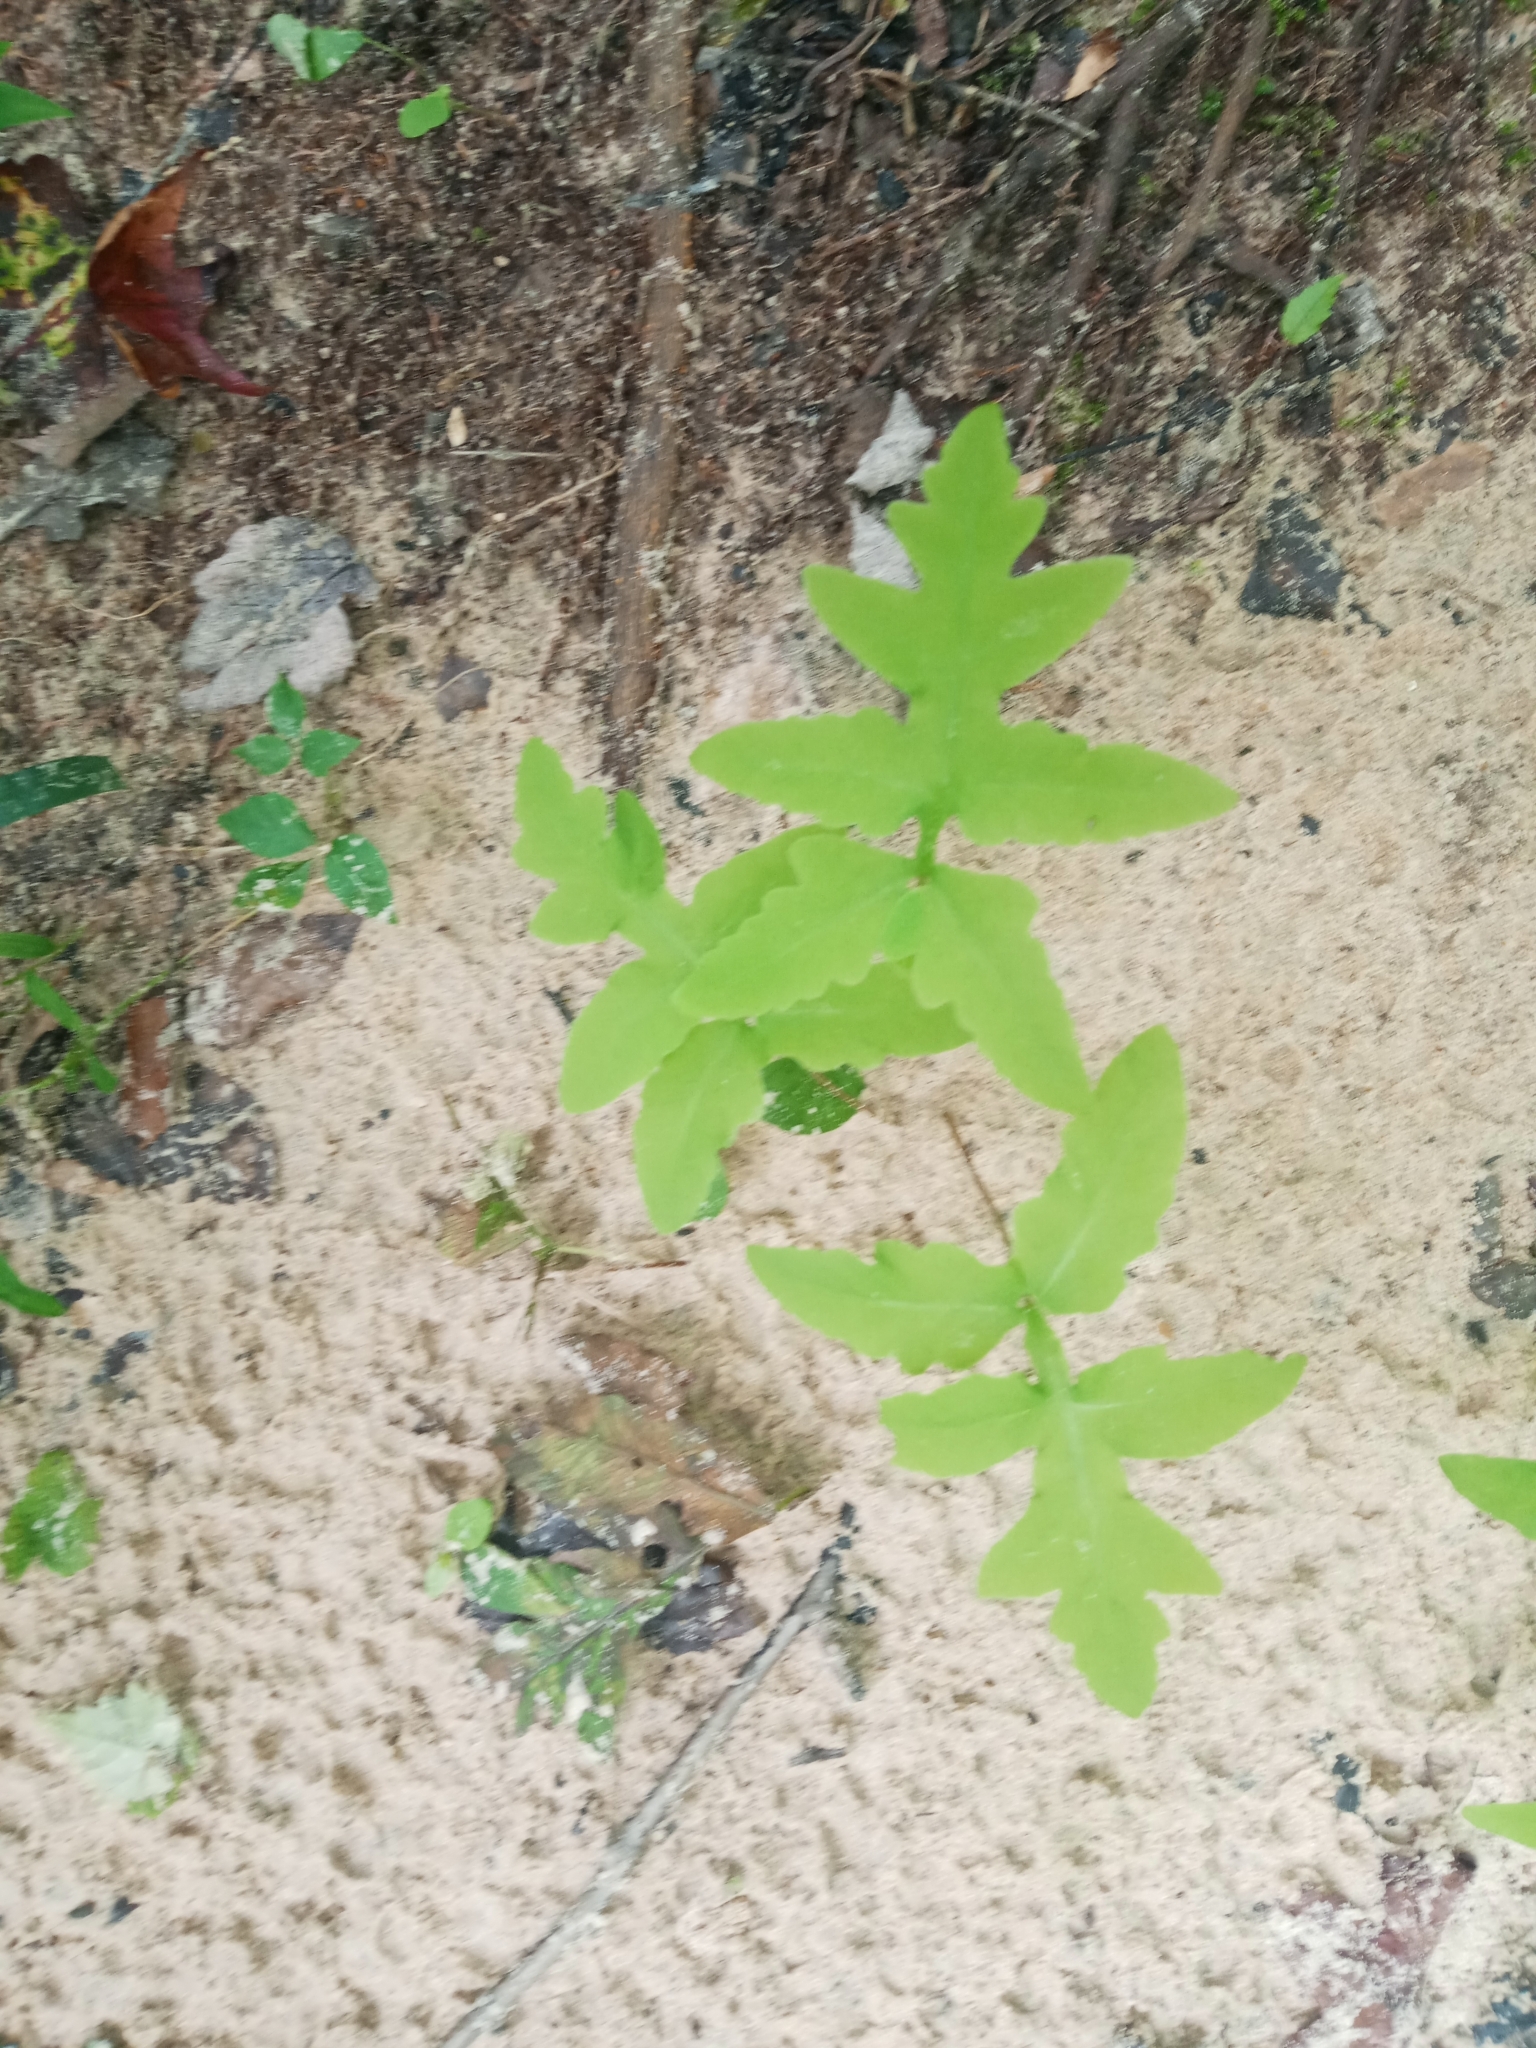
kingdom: Plantae
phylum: Tracheophyta
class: Polypodiopsida
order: Polypodiales
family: Onocleaceae
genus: Onoclea
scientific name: Onoclea sensibilis
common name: Sensitive fern
